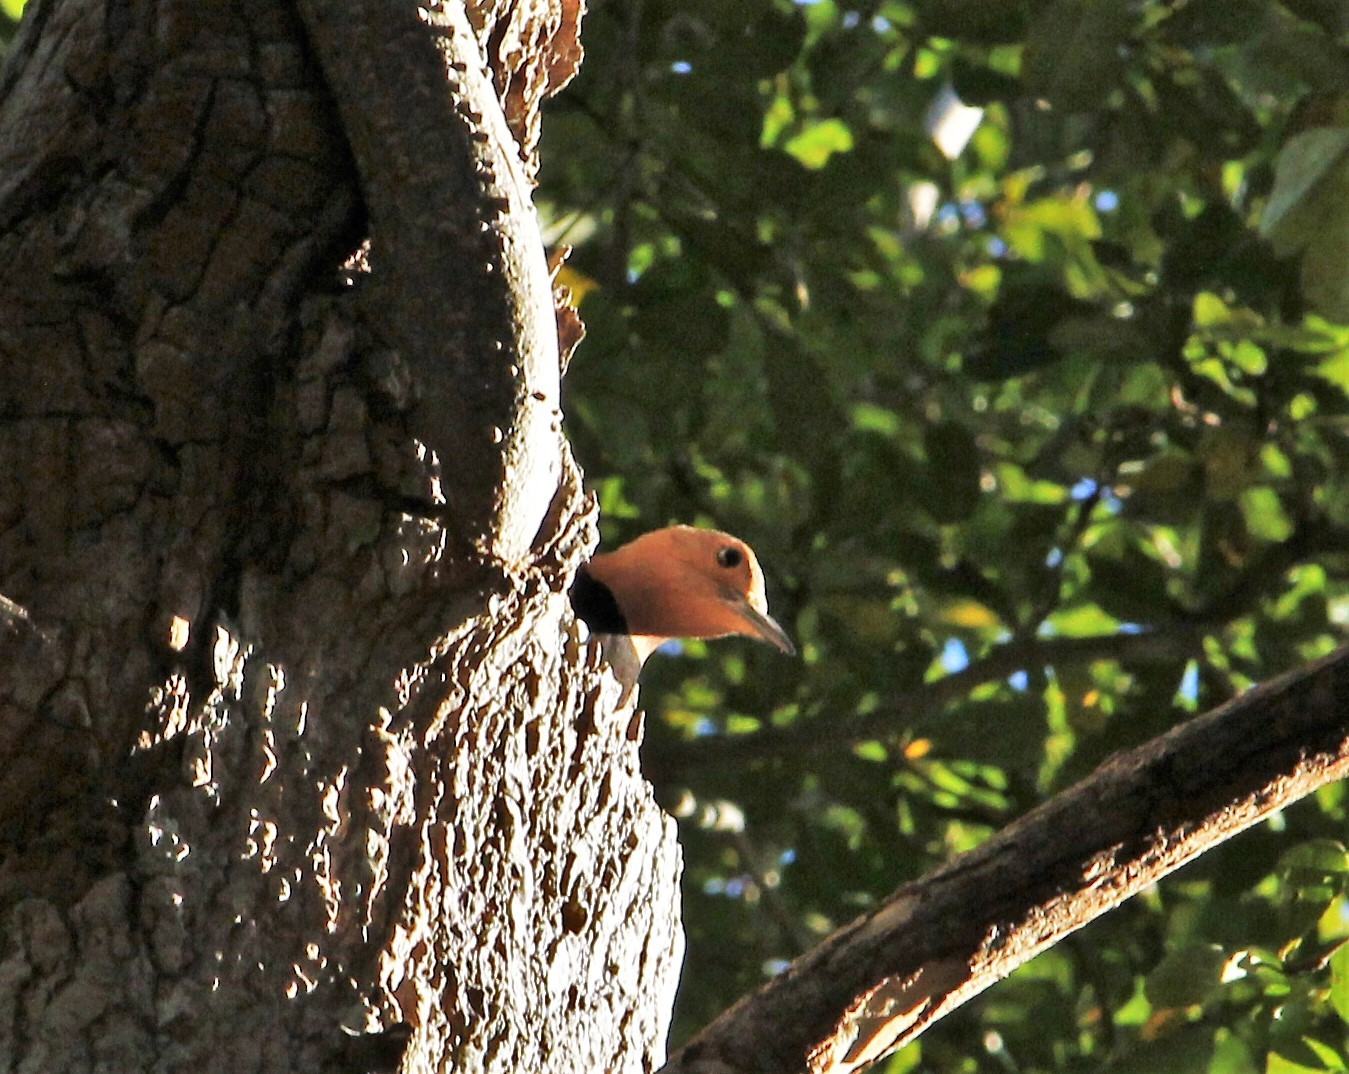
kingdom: Animalia
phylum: Chordata
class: Aves
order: Piciformes
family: Picidae
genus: Colaptes
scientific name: Colaptes auratus
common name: Northern flicker
